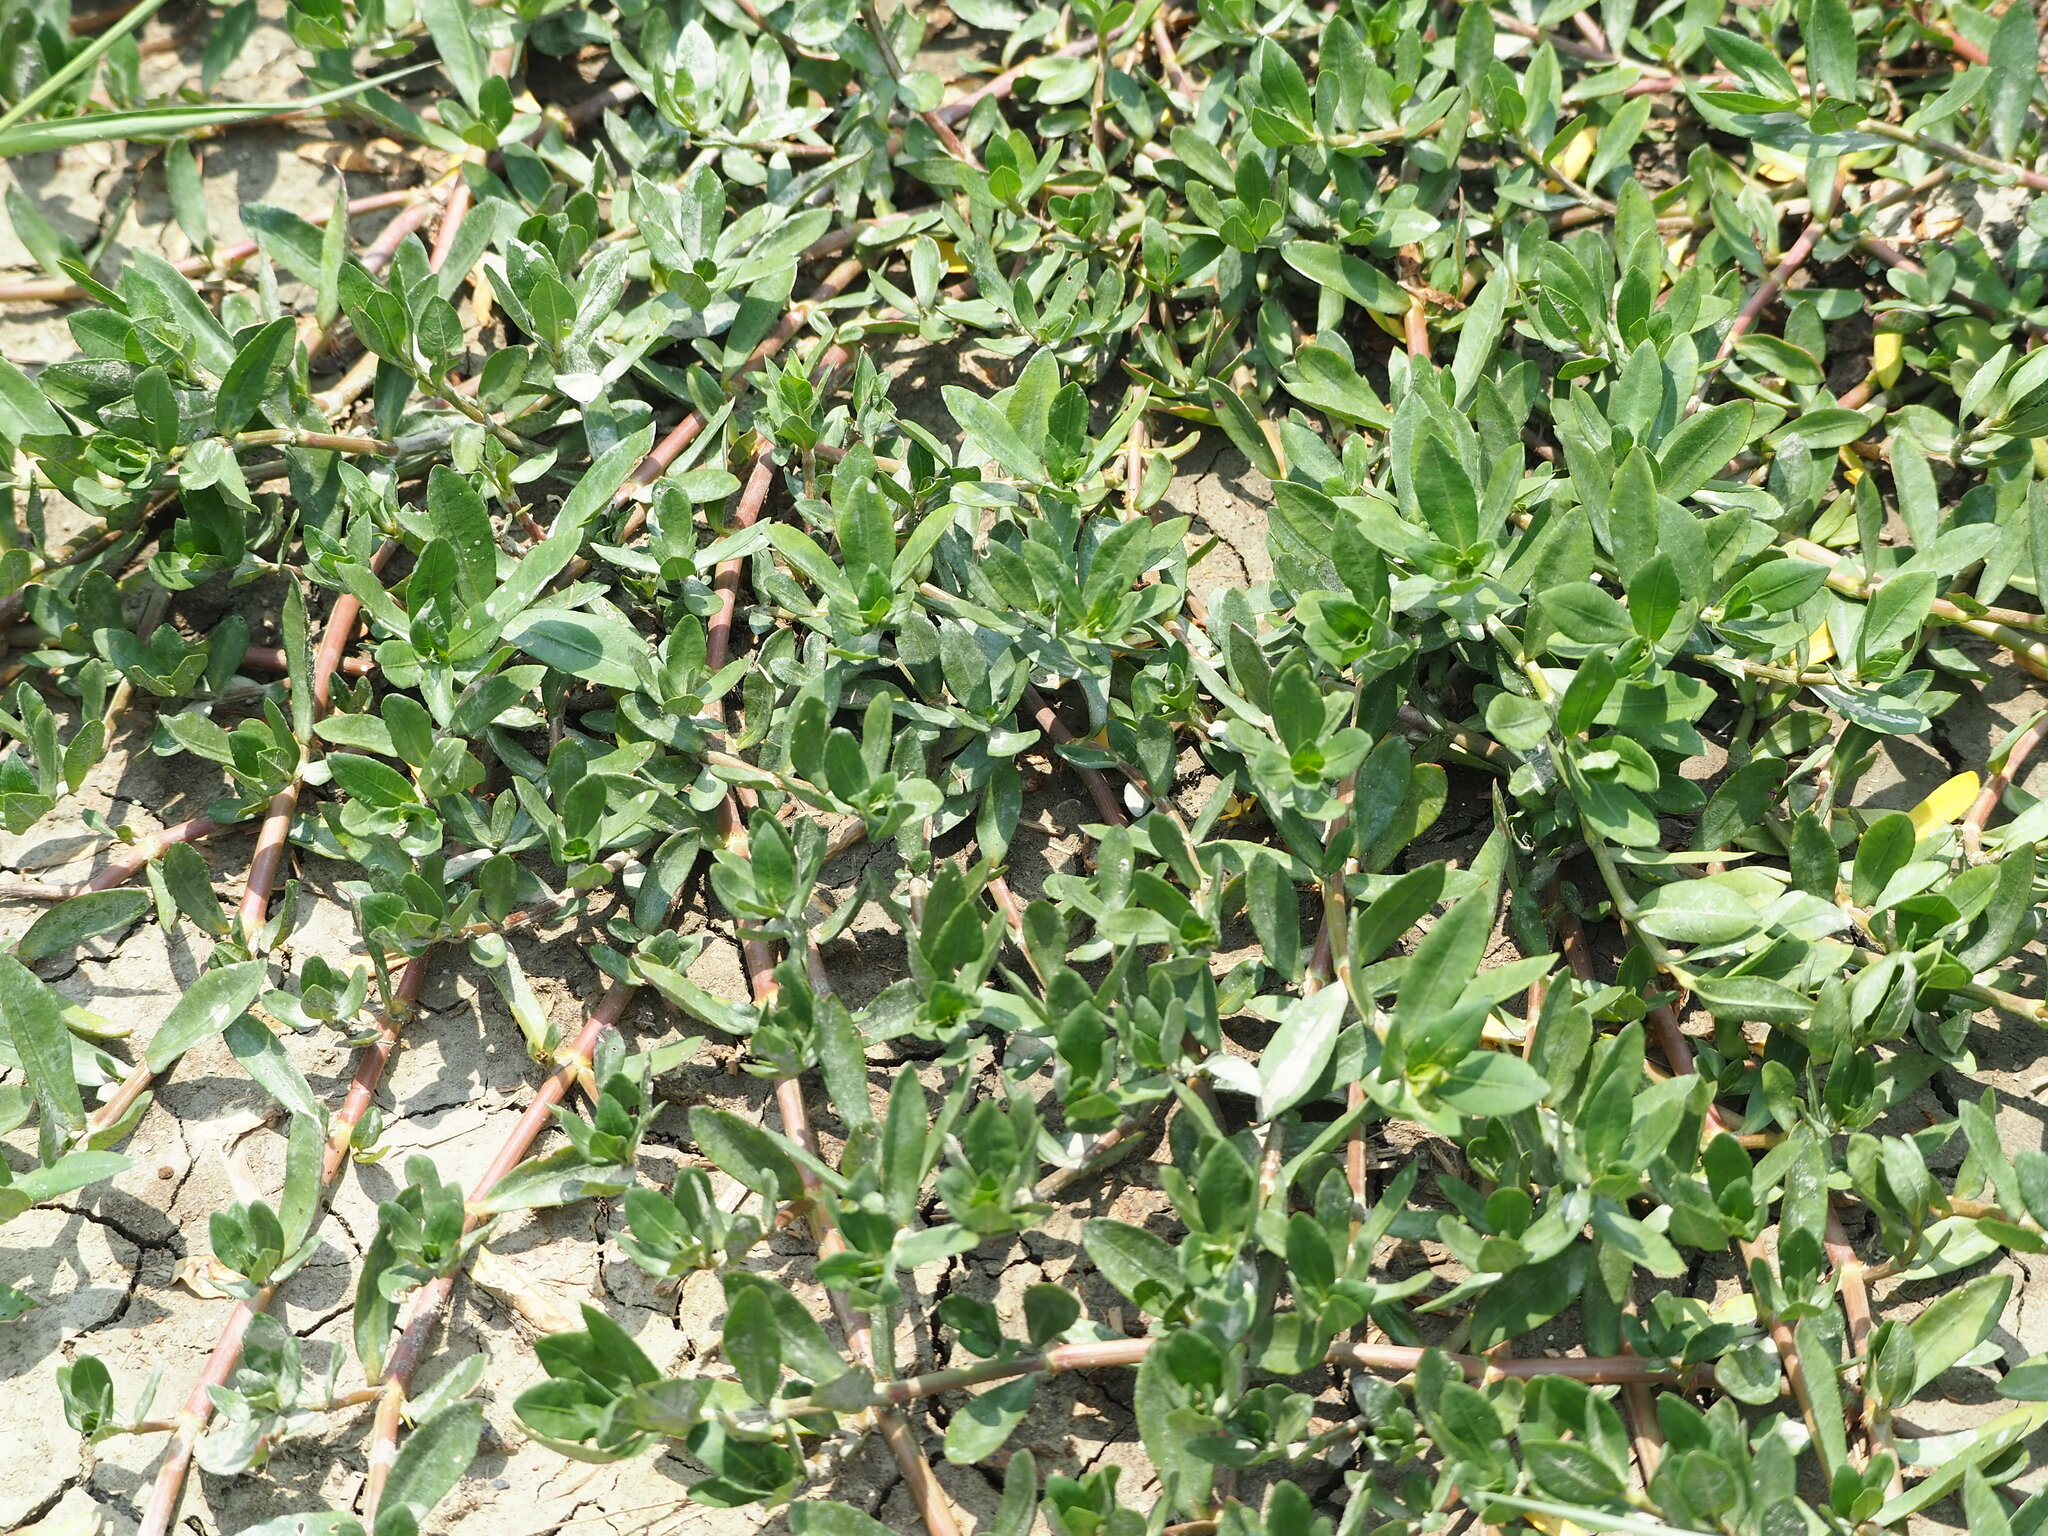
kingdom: Plantae
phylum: Tracheophyta
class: Magnoliopsida
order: Caryophyllales
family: Polygonaceae
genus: Polygonum
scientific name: Polygonum plebeium
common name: Common knotweed
